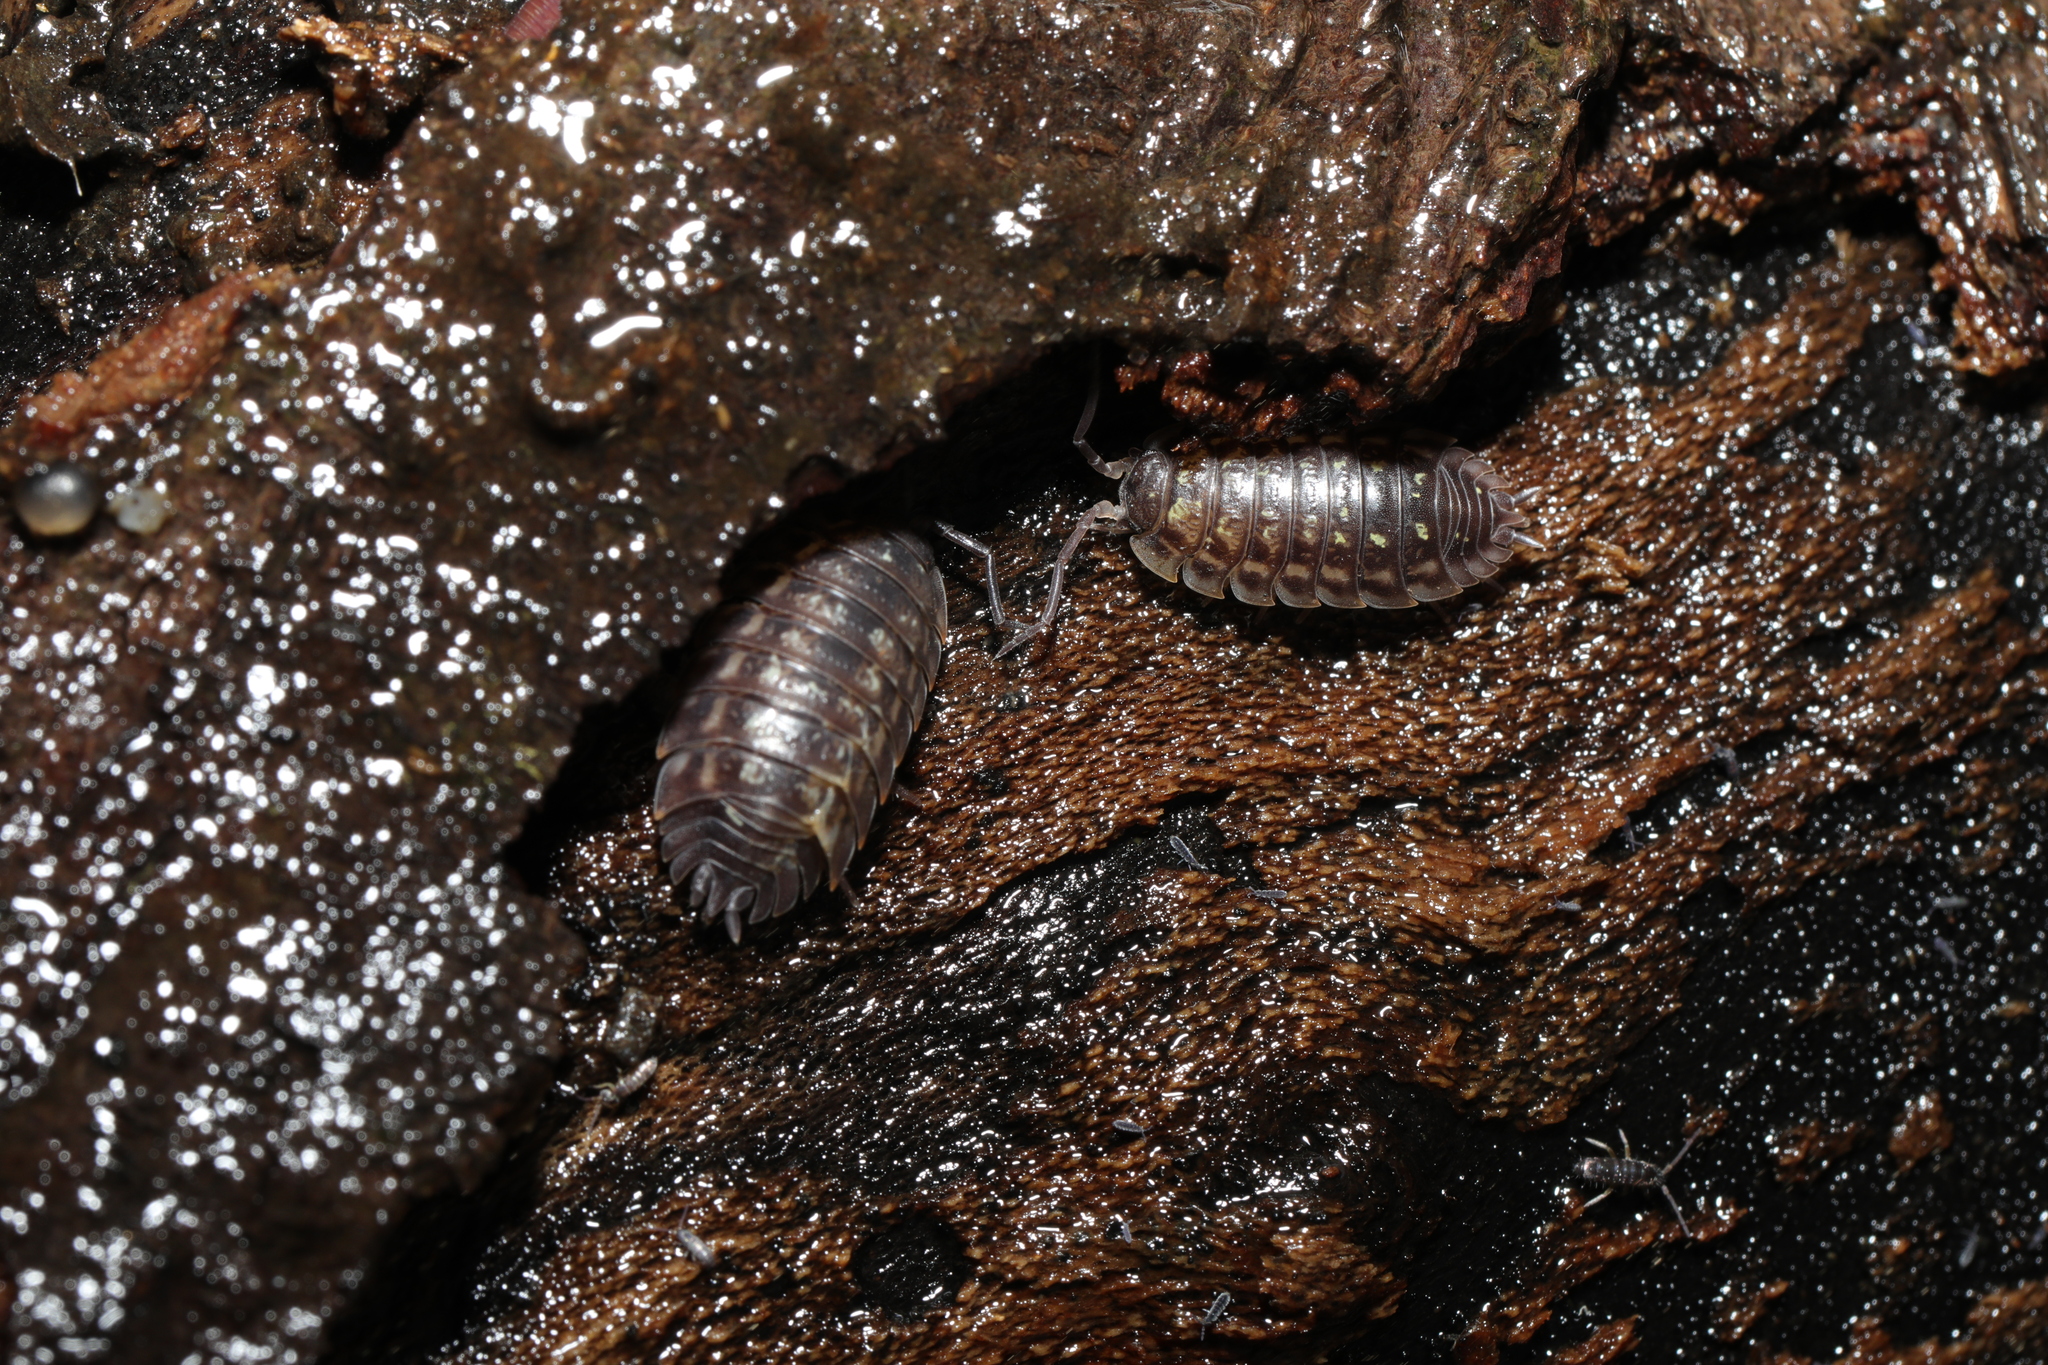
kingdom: Animalia
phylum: Arthropoda
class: Malacostraca
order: Isopoda
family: Oniscidae
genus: Oniscus
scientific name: Oniscus asellus
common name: Common shiny woodlouse
